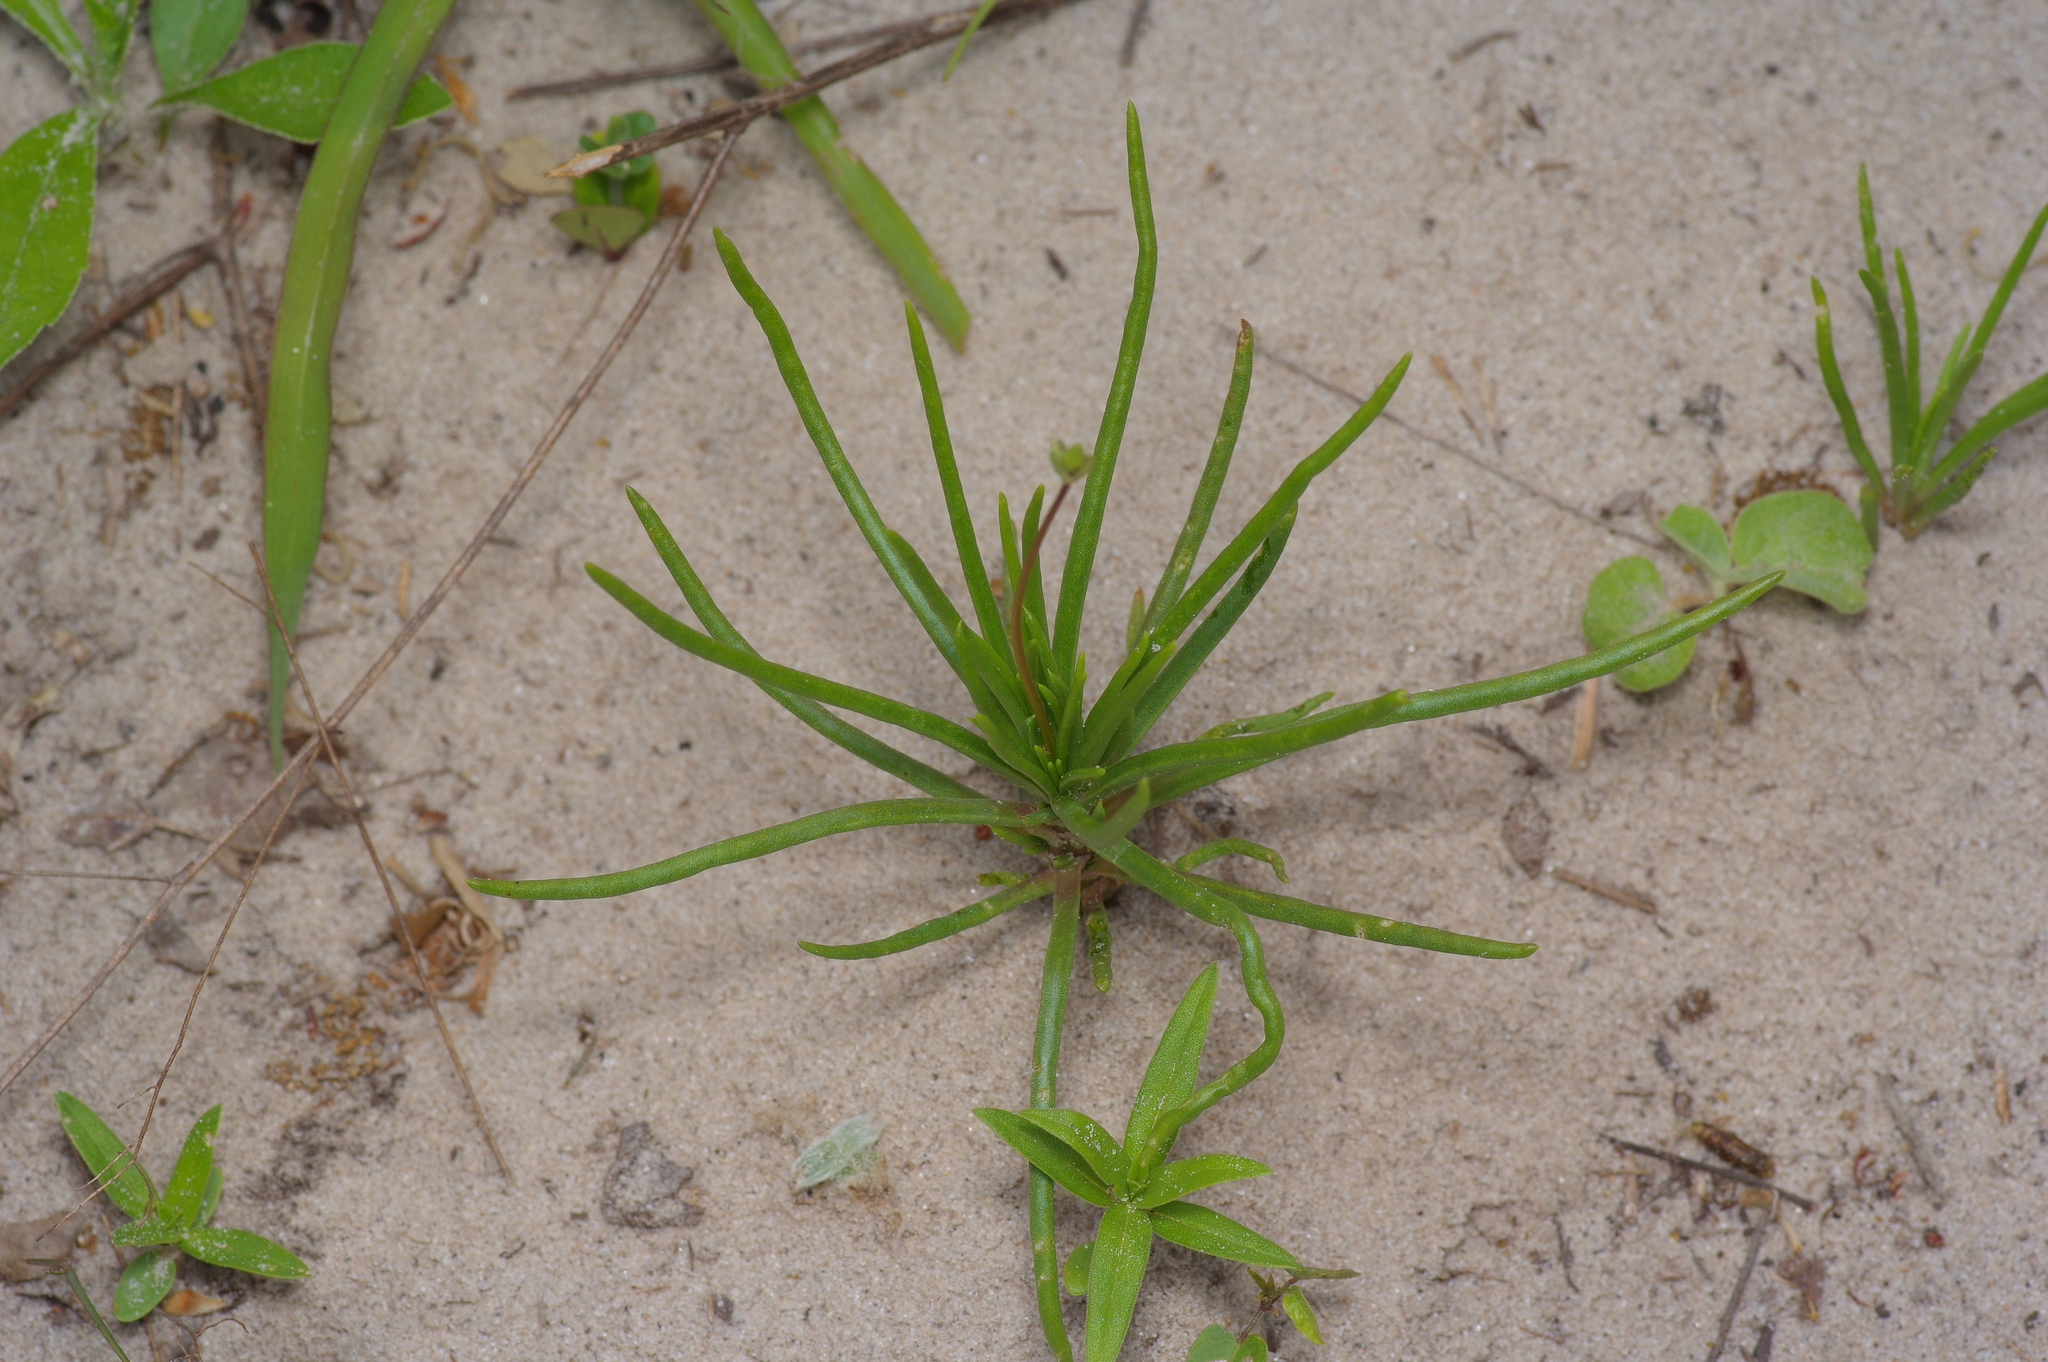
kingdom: Plantae
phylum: Tracheophyta
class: Magnoliopsida
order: Caryophyllales
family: Montiaceae
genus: Phemeranthus
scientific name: Phemeranthus rugospermus
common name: Prairie fameflower
